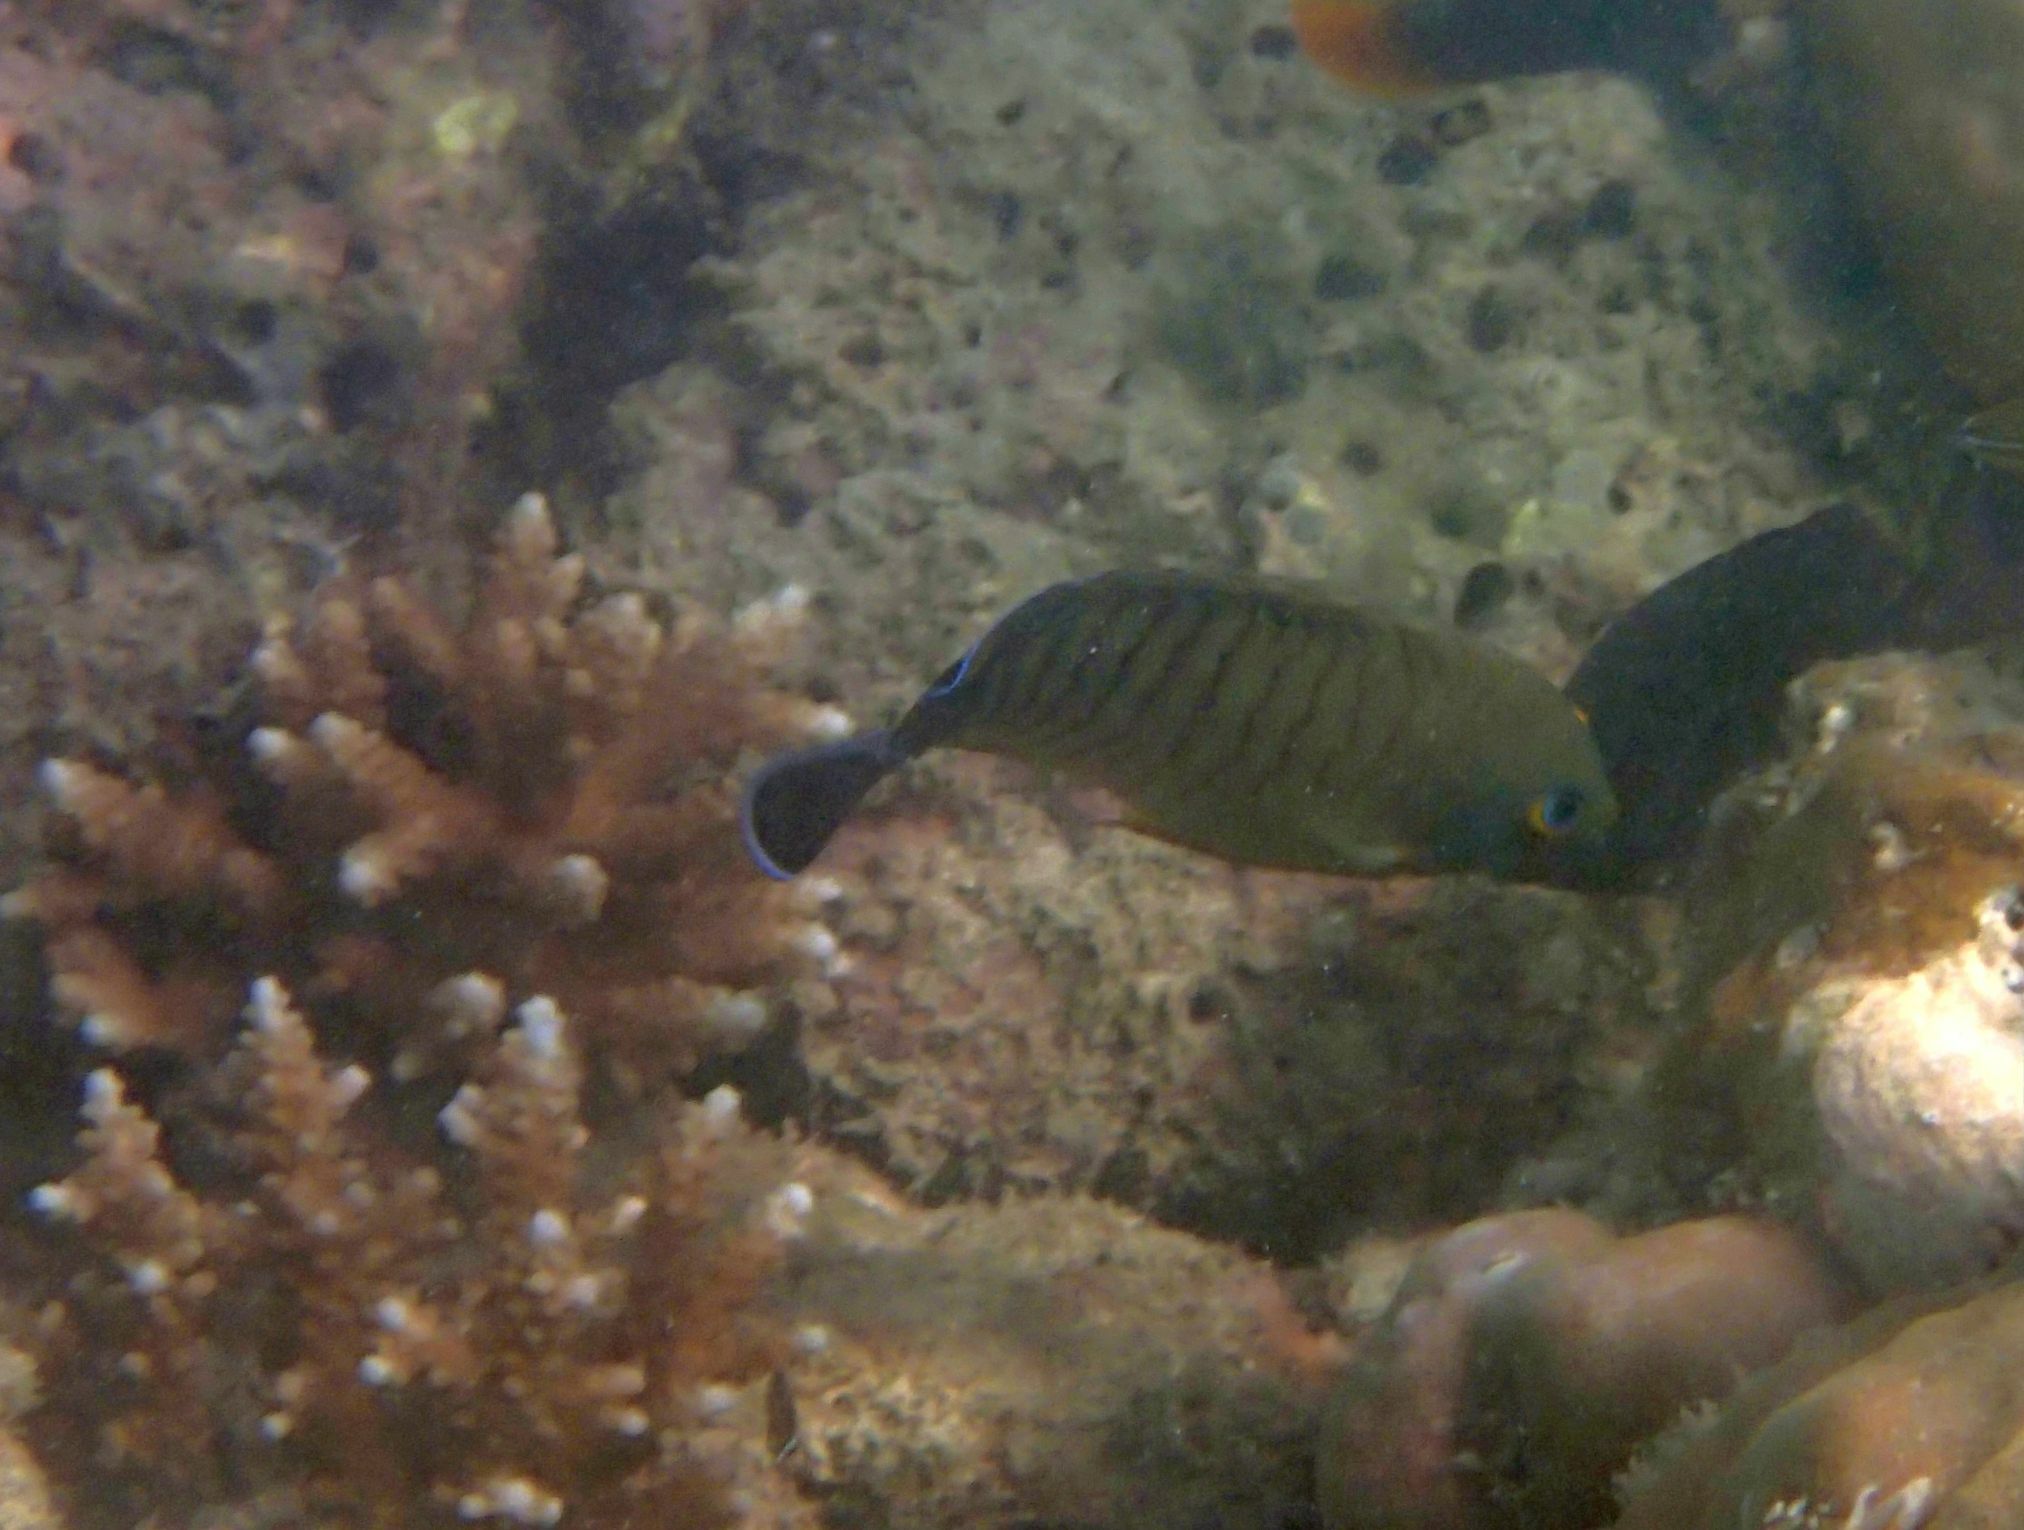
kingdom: Animalia
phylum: Chordata
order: Perciformes
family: Pomacanthidae
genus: Centropyge
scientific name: Centropyge eibli
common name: Eibl's angelfish
